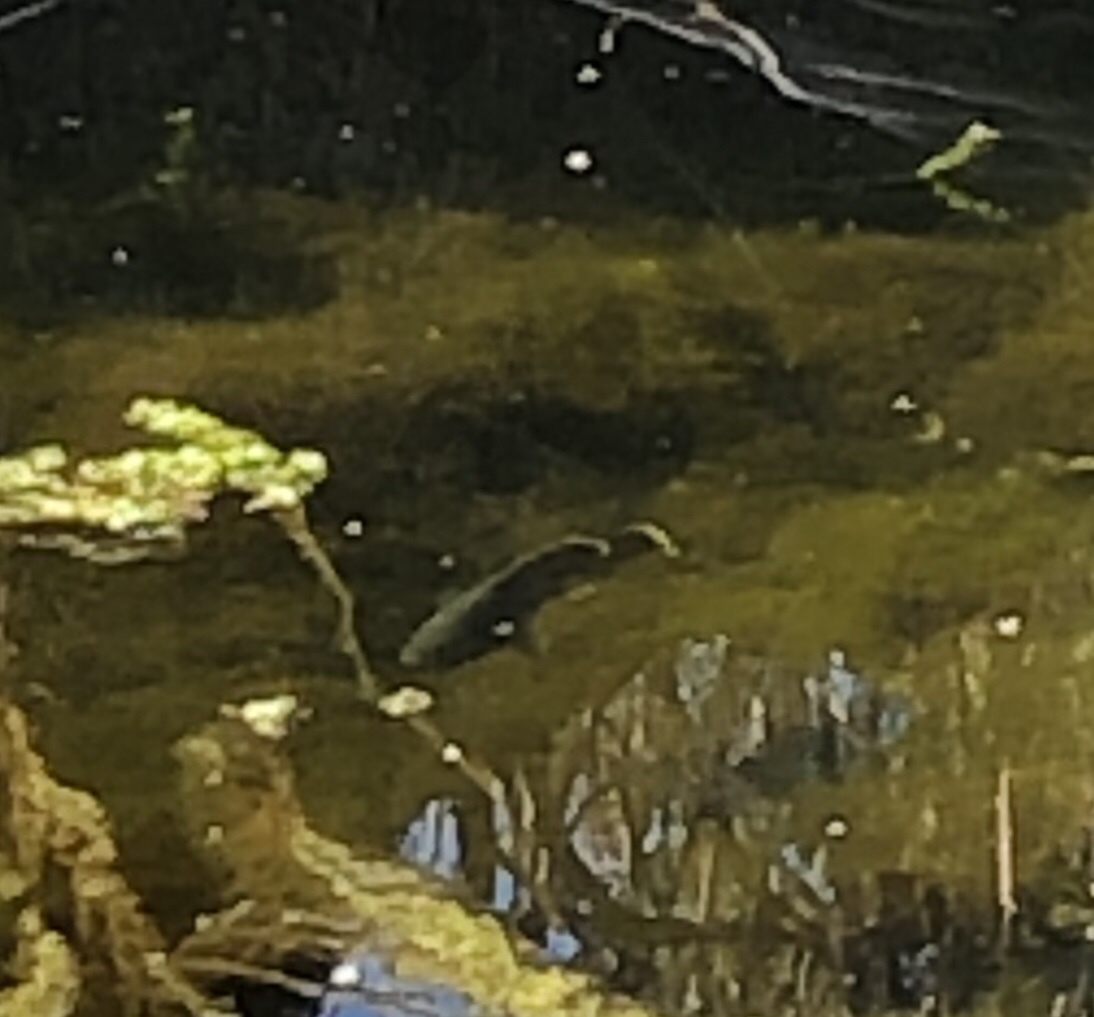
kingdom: Animalia
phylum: Chordata
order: Perciformes
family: Centrarchidae
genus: Lepomis
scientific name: Lepomis cyanellus
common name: Green sunfish
